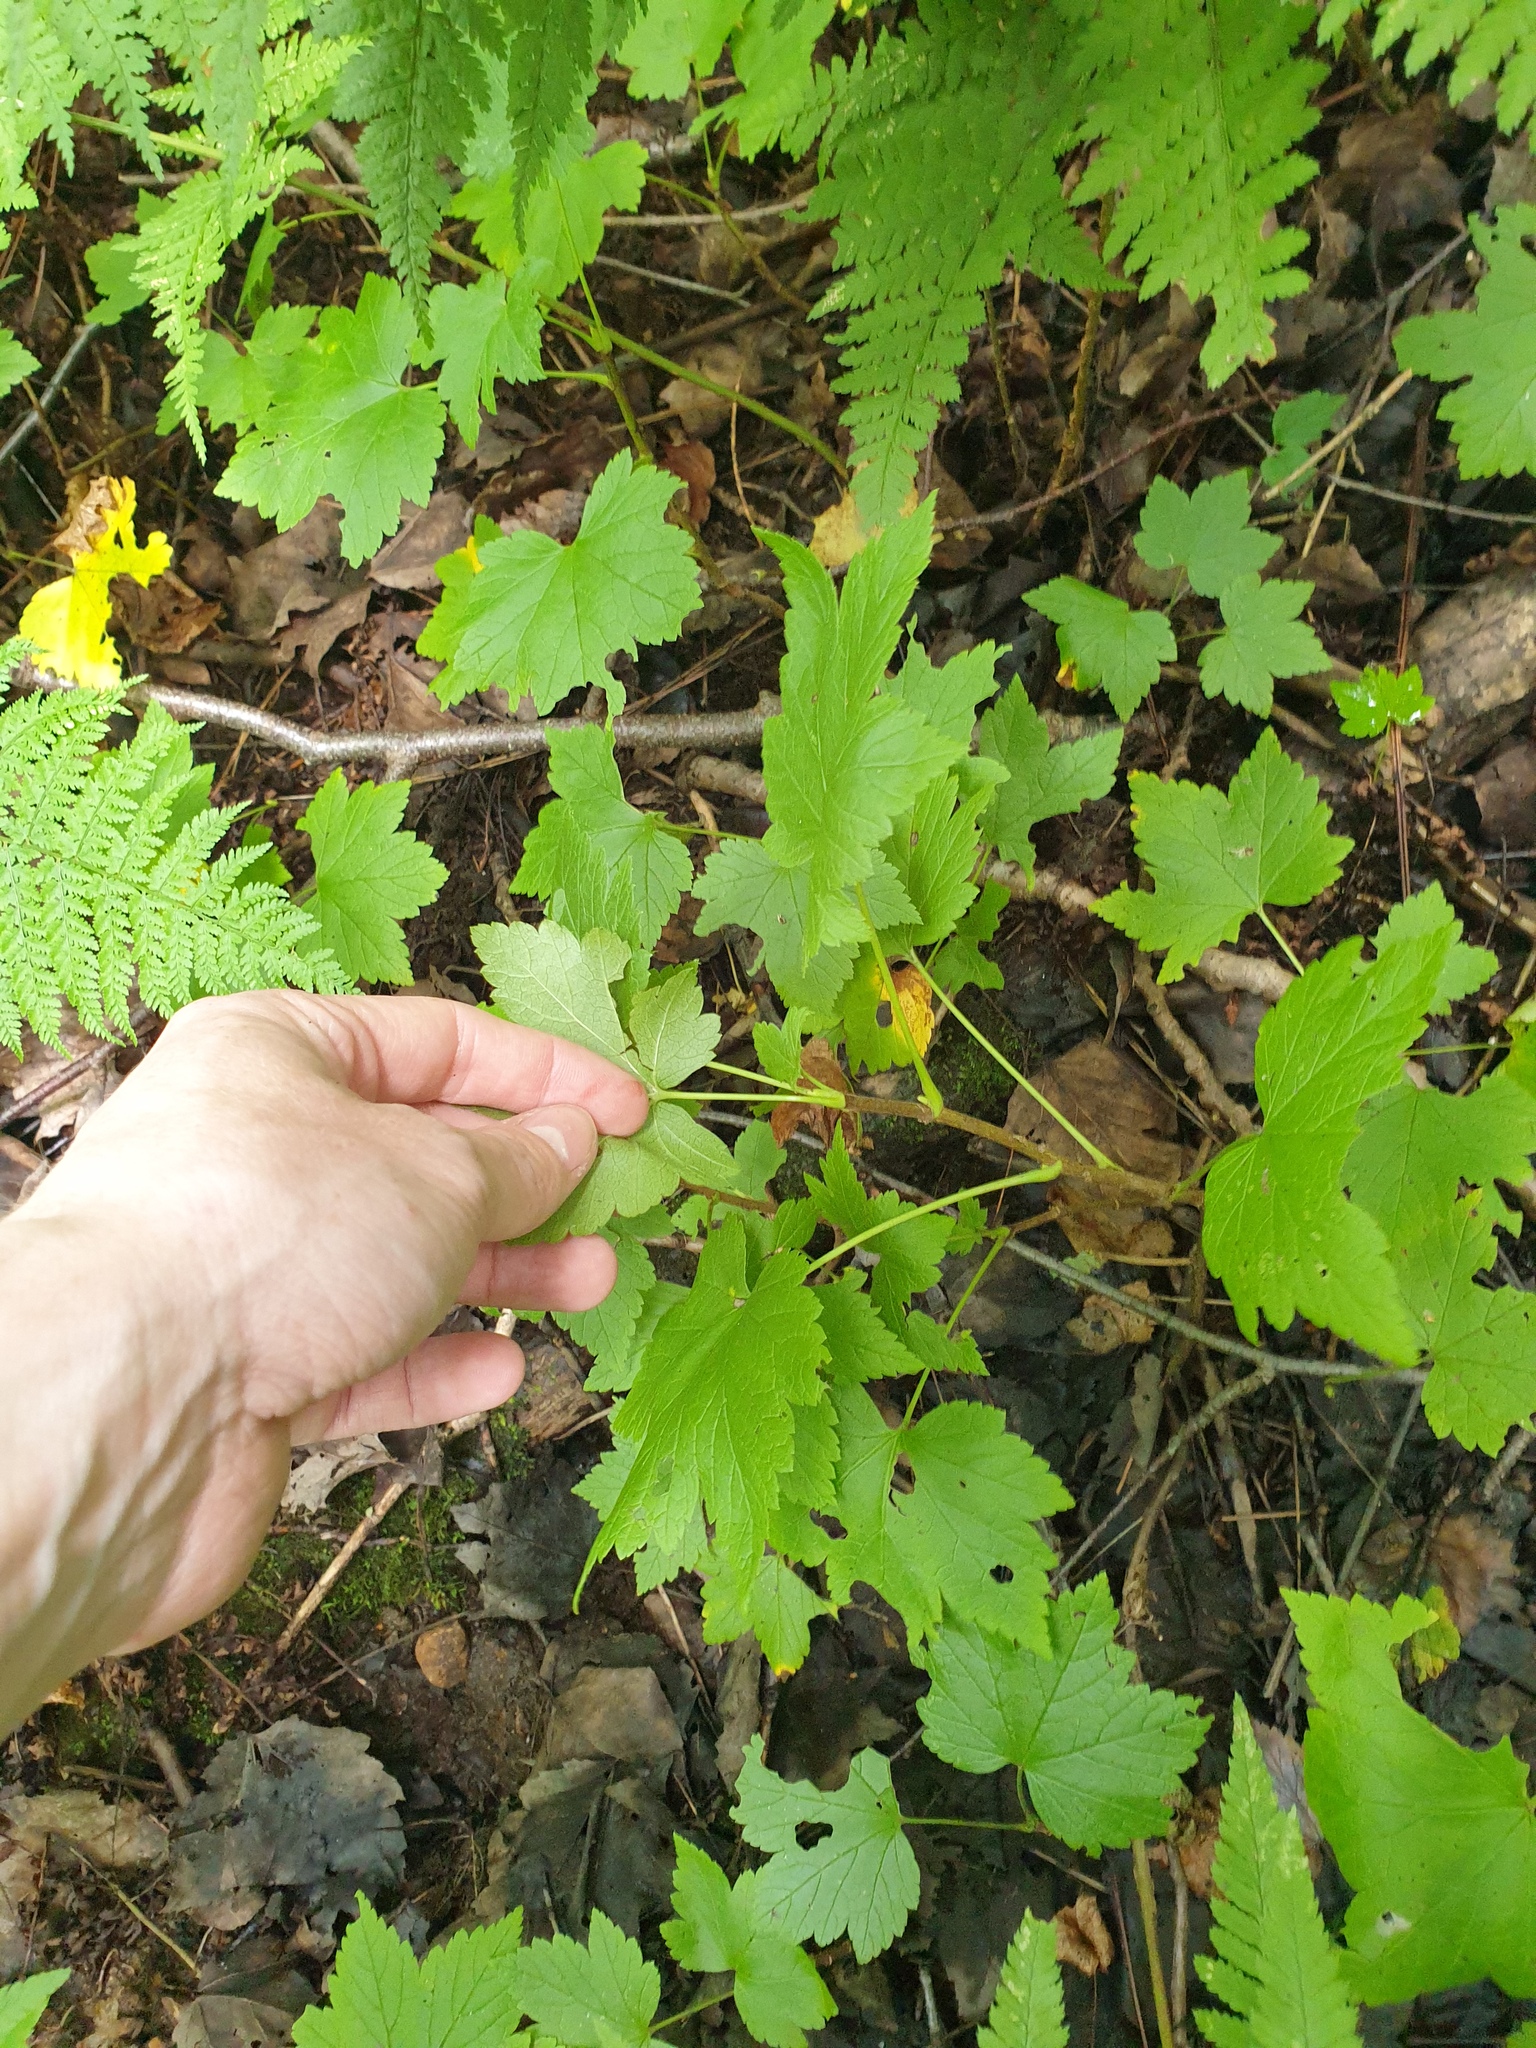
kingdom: Plantae
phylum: Tracheophyta
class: Magnoliopsida
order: Saxifragales
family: Grossulariaceae
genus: Ribes
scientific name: Ribes glandulosum
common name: Skunk currant
